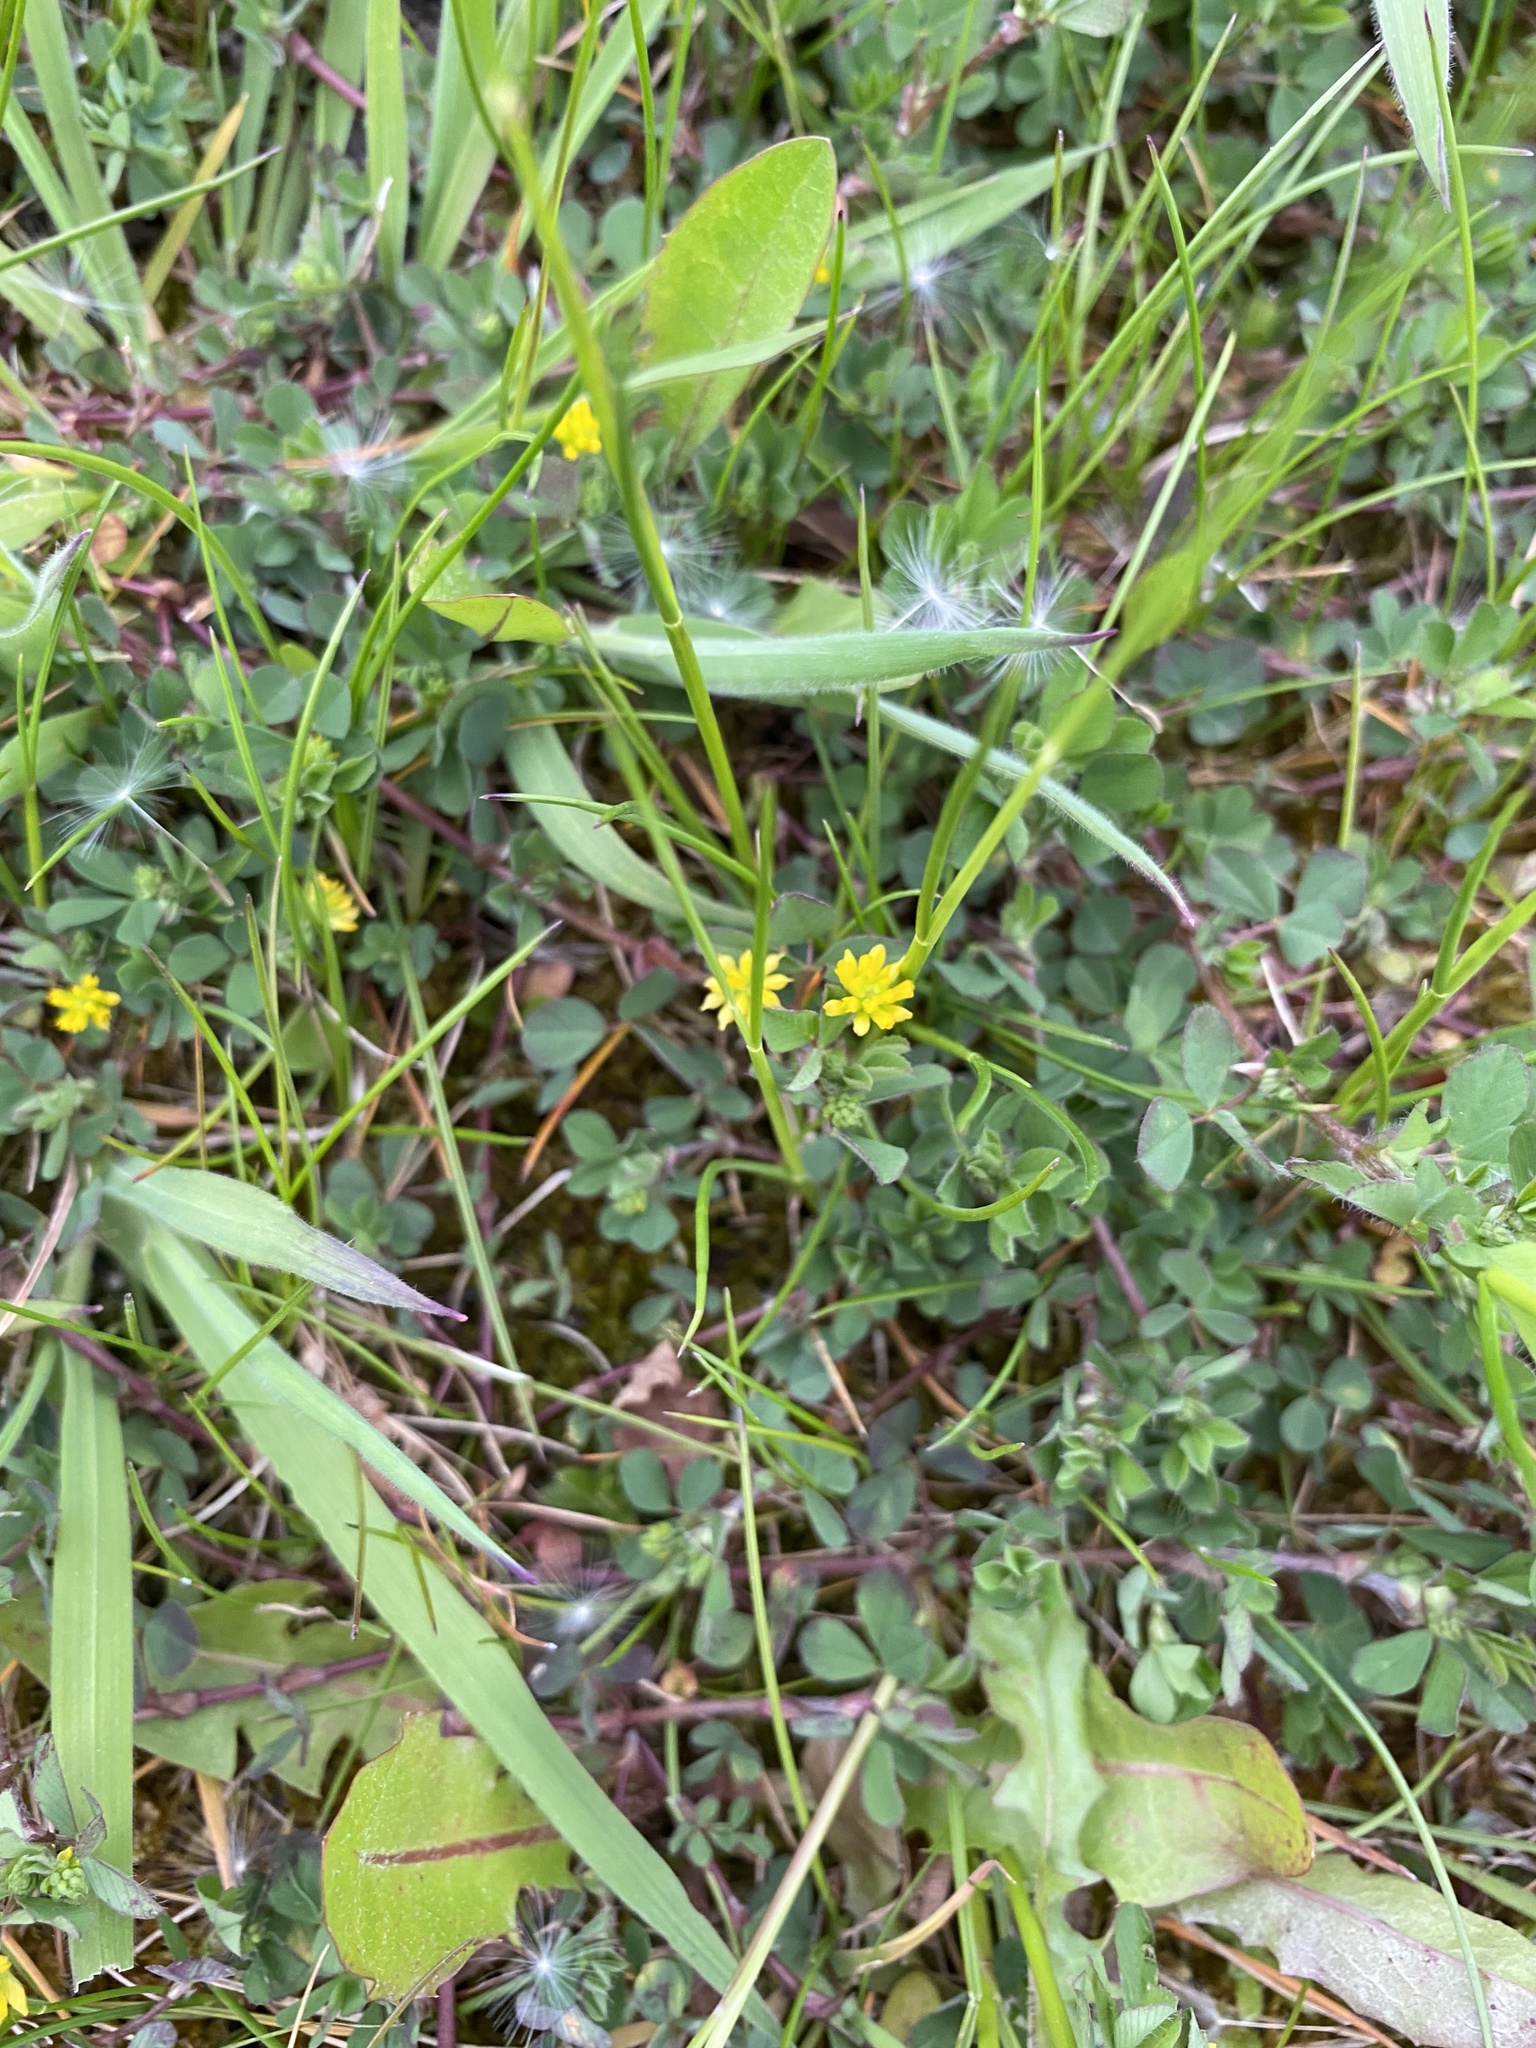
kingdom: Plantae
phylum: Tracheophyta
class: Magnoliopsida
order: Fabales
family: Fabaceae
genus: Trifolium
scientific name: Trifolium dubium
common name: Suckling clover
